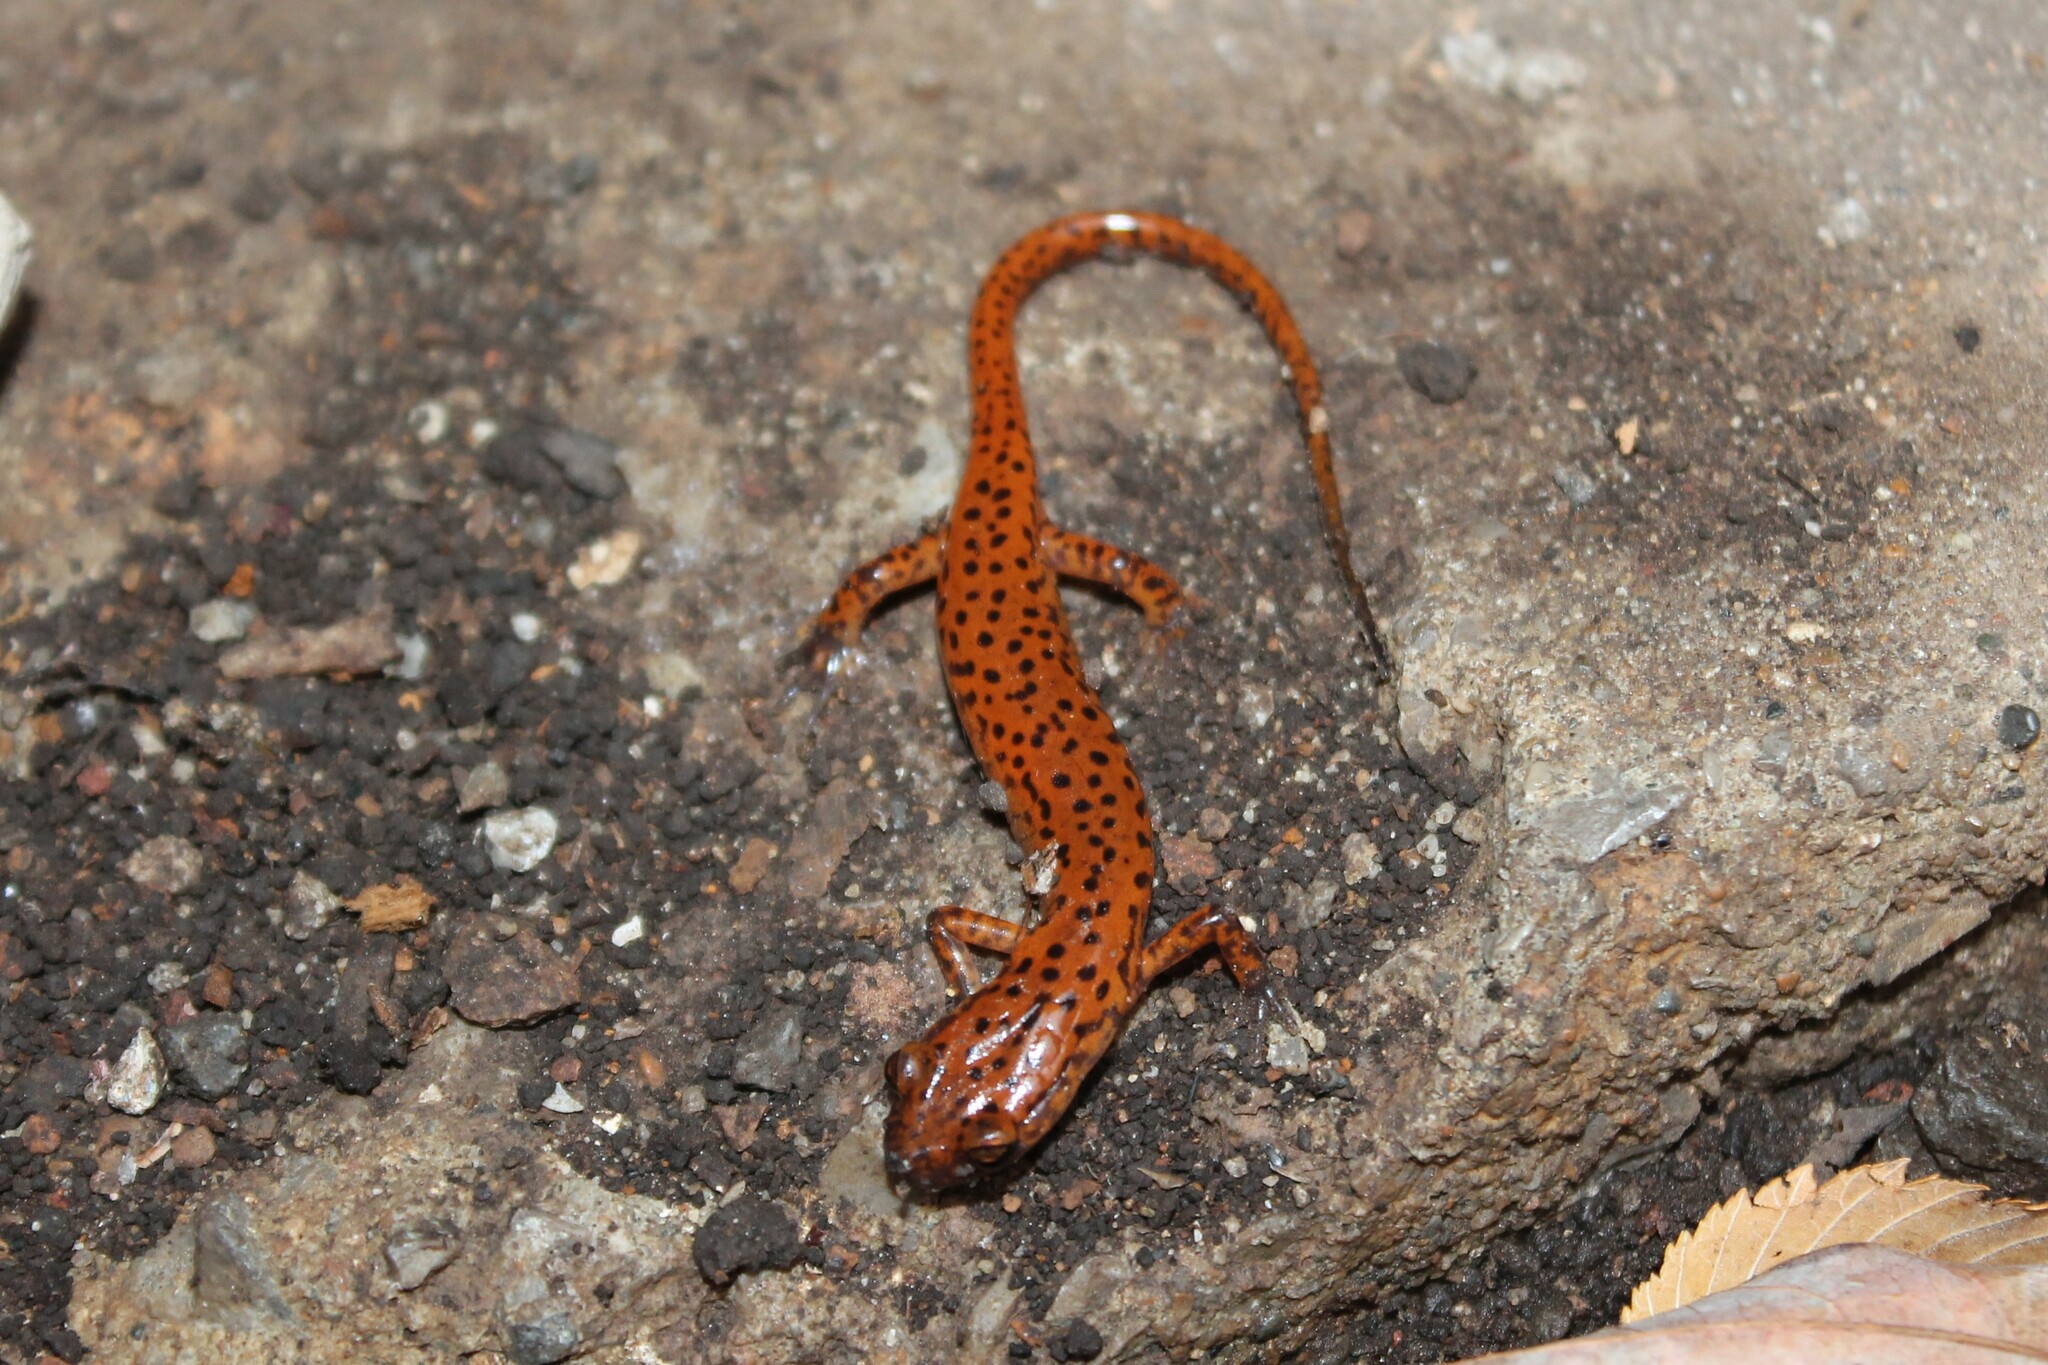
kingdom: Animalia
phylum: Chordata
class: Amphibia
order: Caudata
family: Plethodontidae
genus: Eurycea
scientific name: Eurycea lucifuga
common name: Cave salamander
